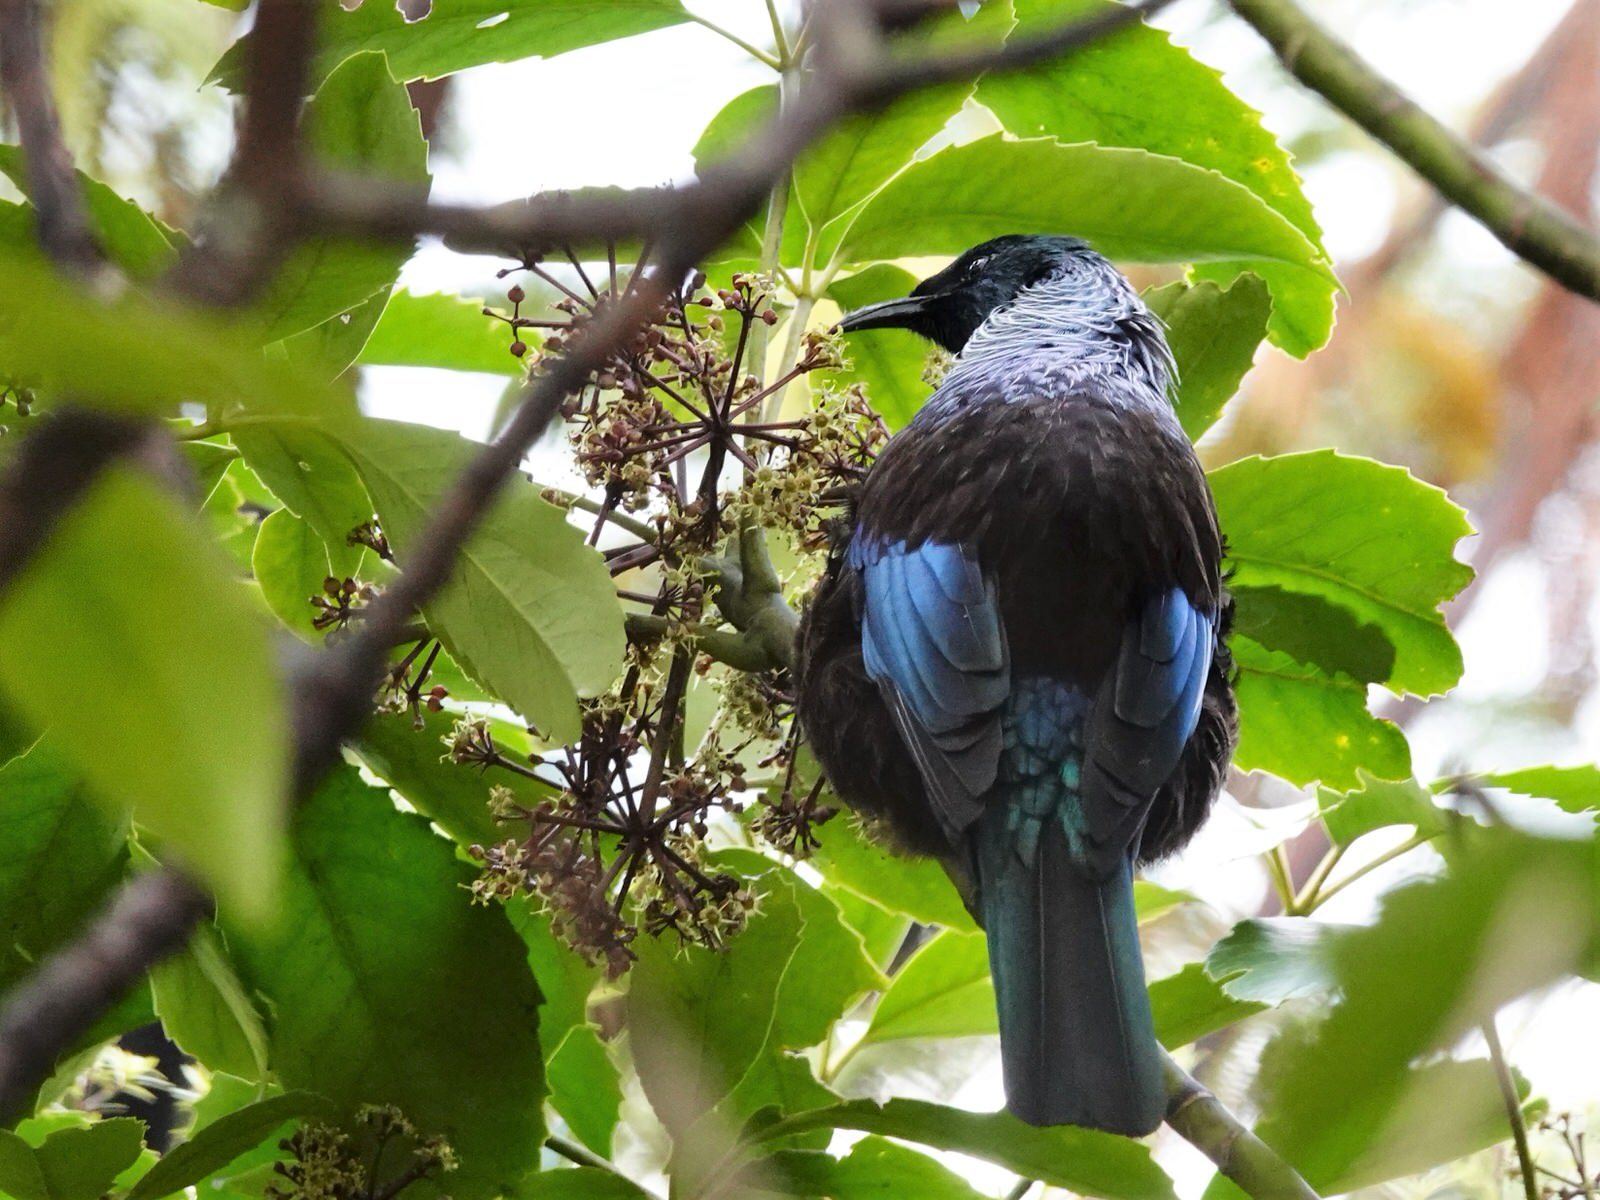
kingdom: Animalia
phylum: Chordata
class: Aves
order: Passeriformes
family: Meliphagidae
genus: Prosthemadera
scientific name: Prosthemadera novaeseelandiae
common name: Tui
